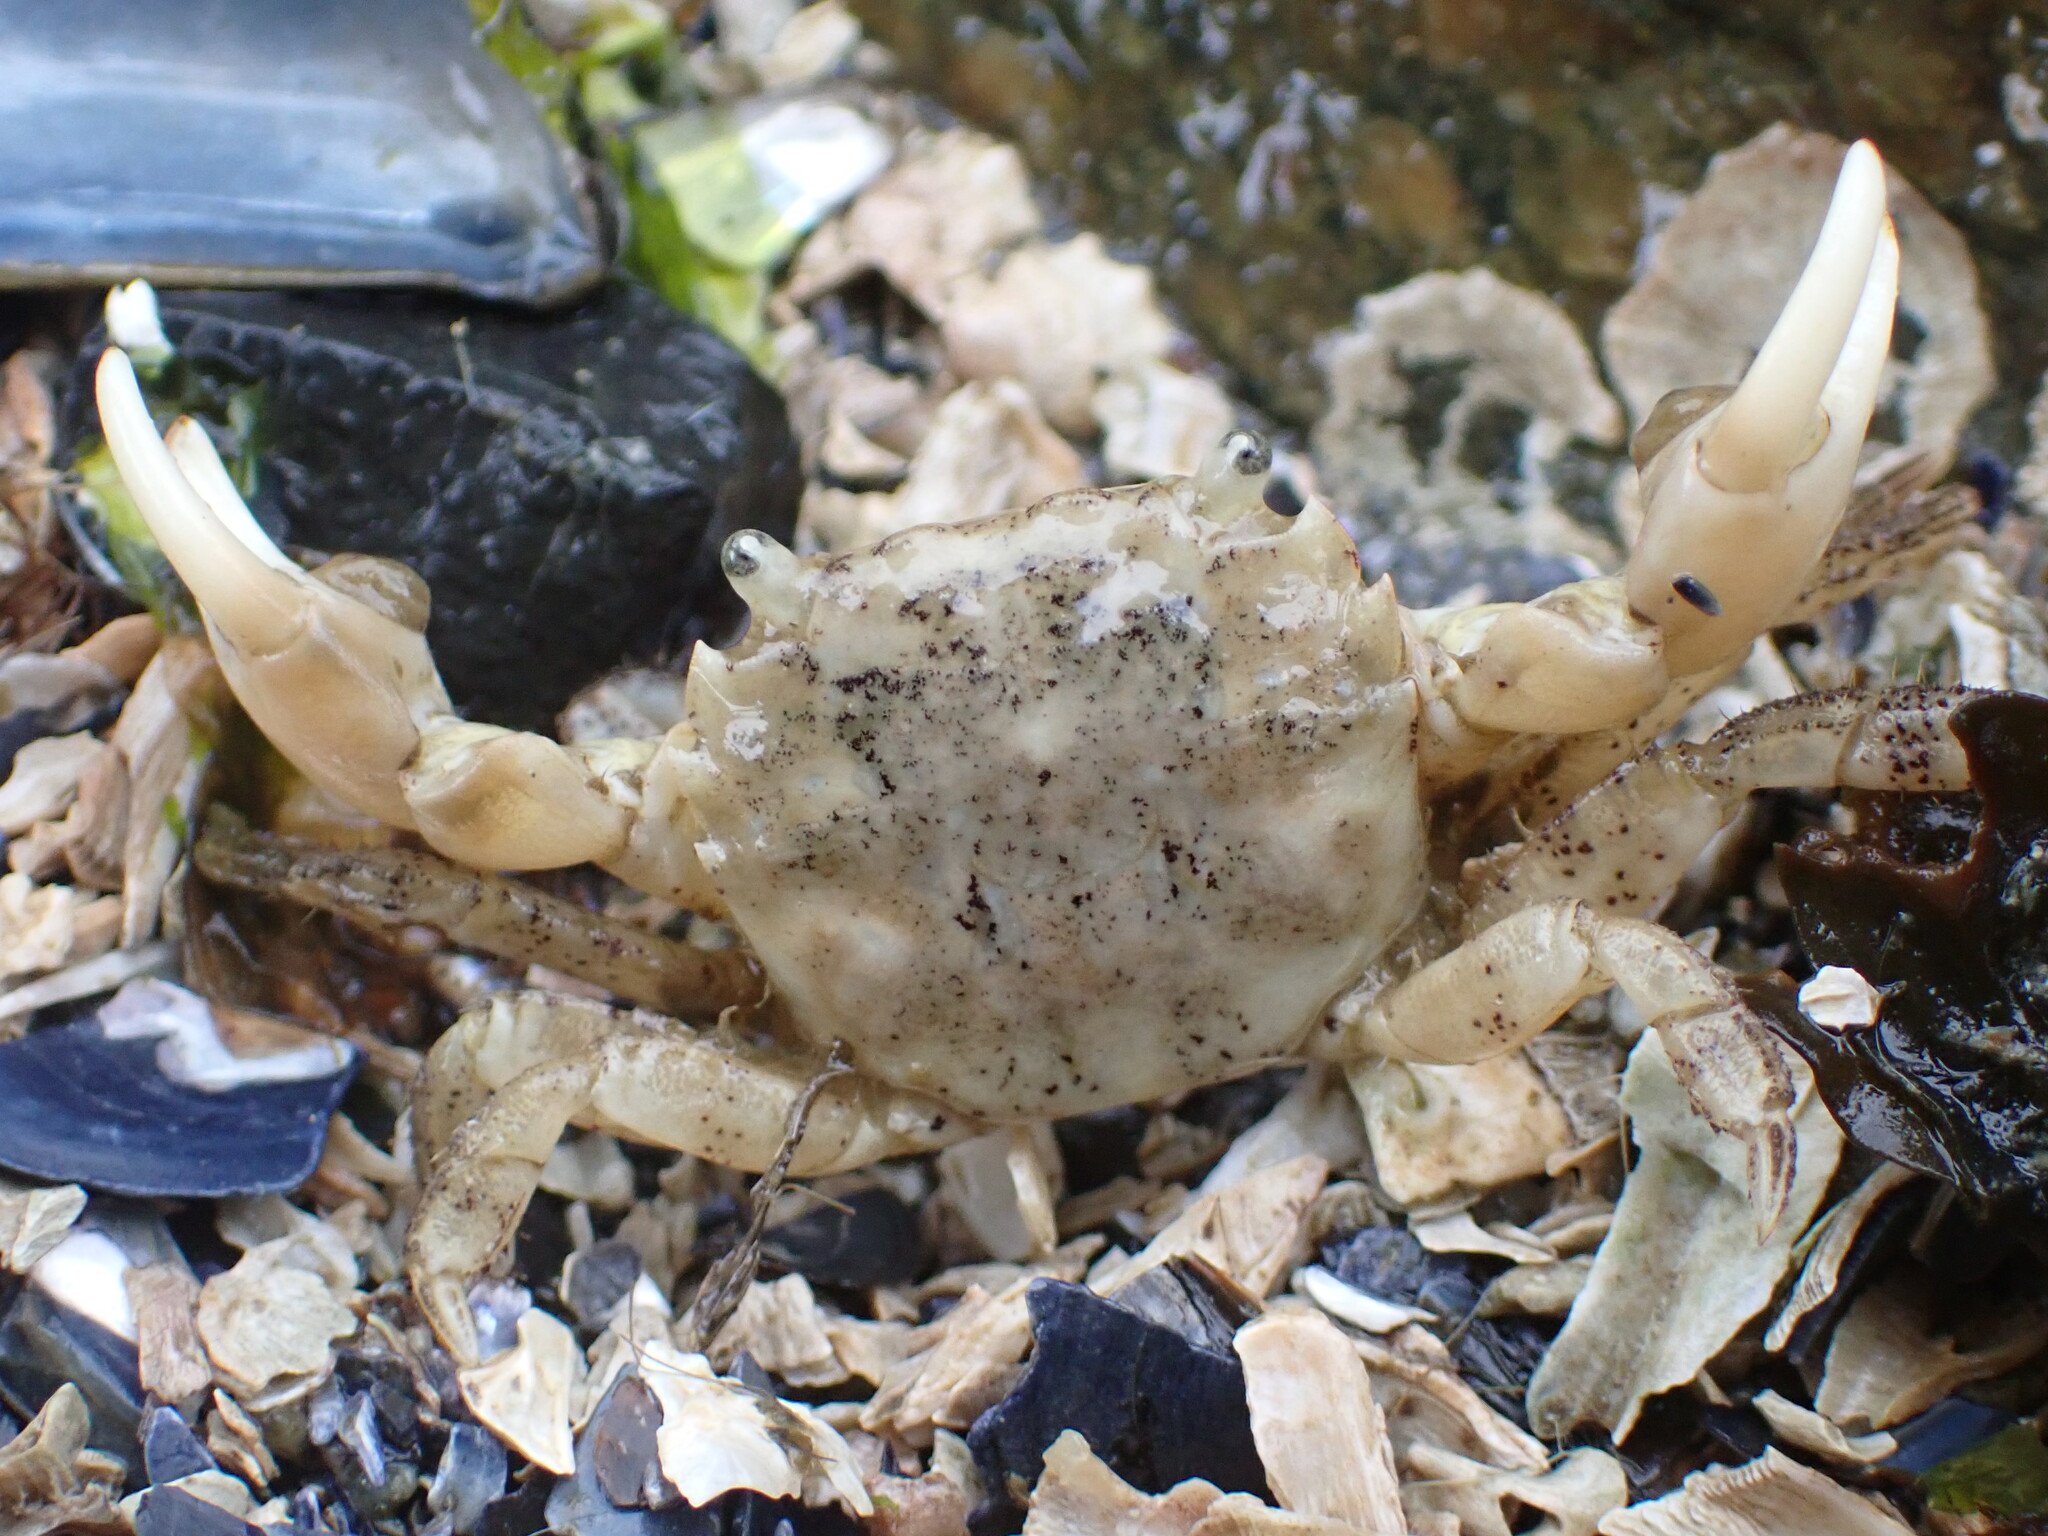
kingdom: Animalia
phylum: Arthropoda
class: Malacostraca
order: Decapoda
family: Varunidae
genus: Hemigrapsus
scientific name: Hemigrapsus oregonensis
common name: Yellow shore crab
